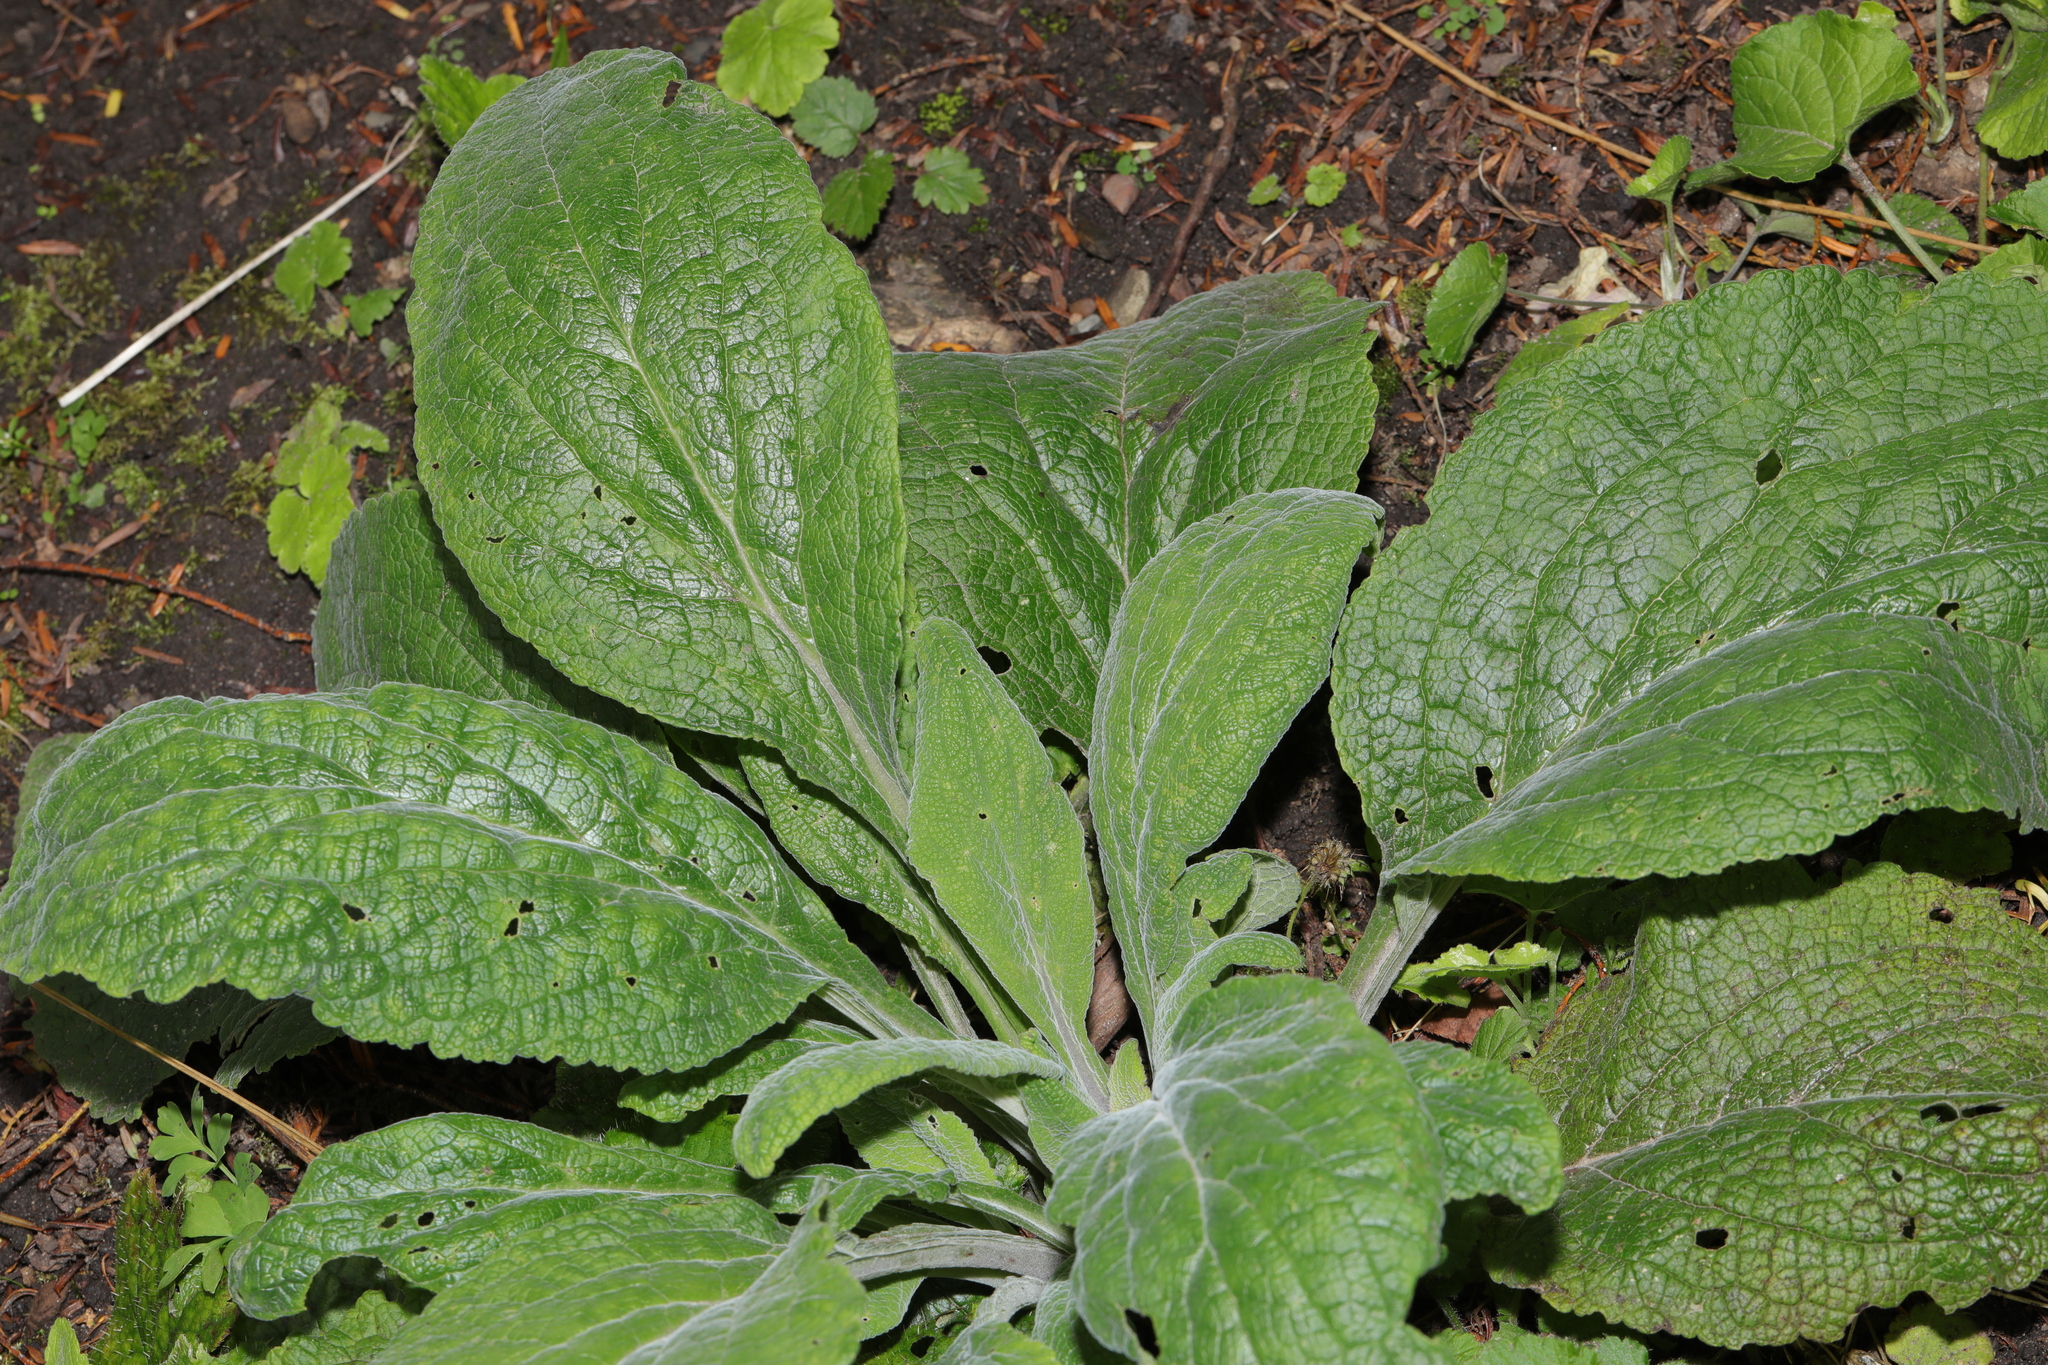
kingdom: Plantae
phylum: Tracheophyta
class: Magnoliopsida
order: Lamiales
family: Plantaginaceae
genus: Digitalis
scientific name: Digitalis purpurea
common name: Foxglove
